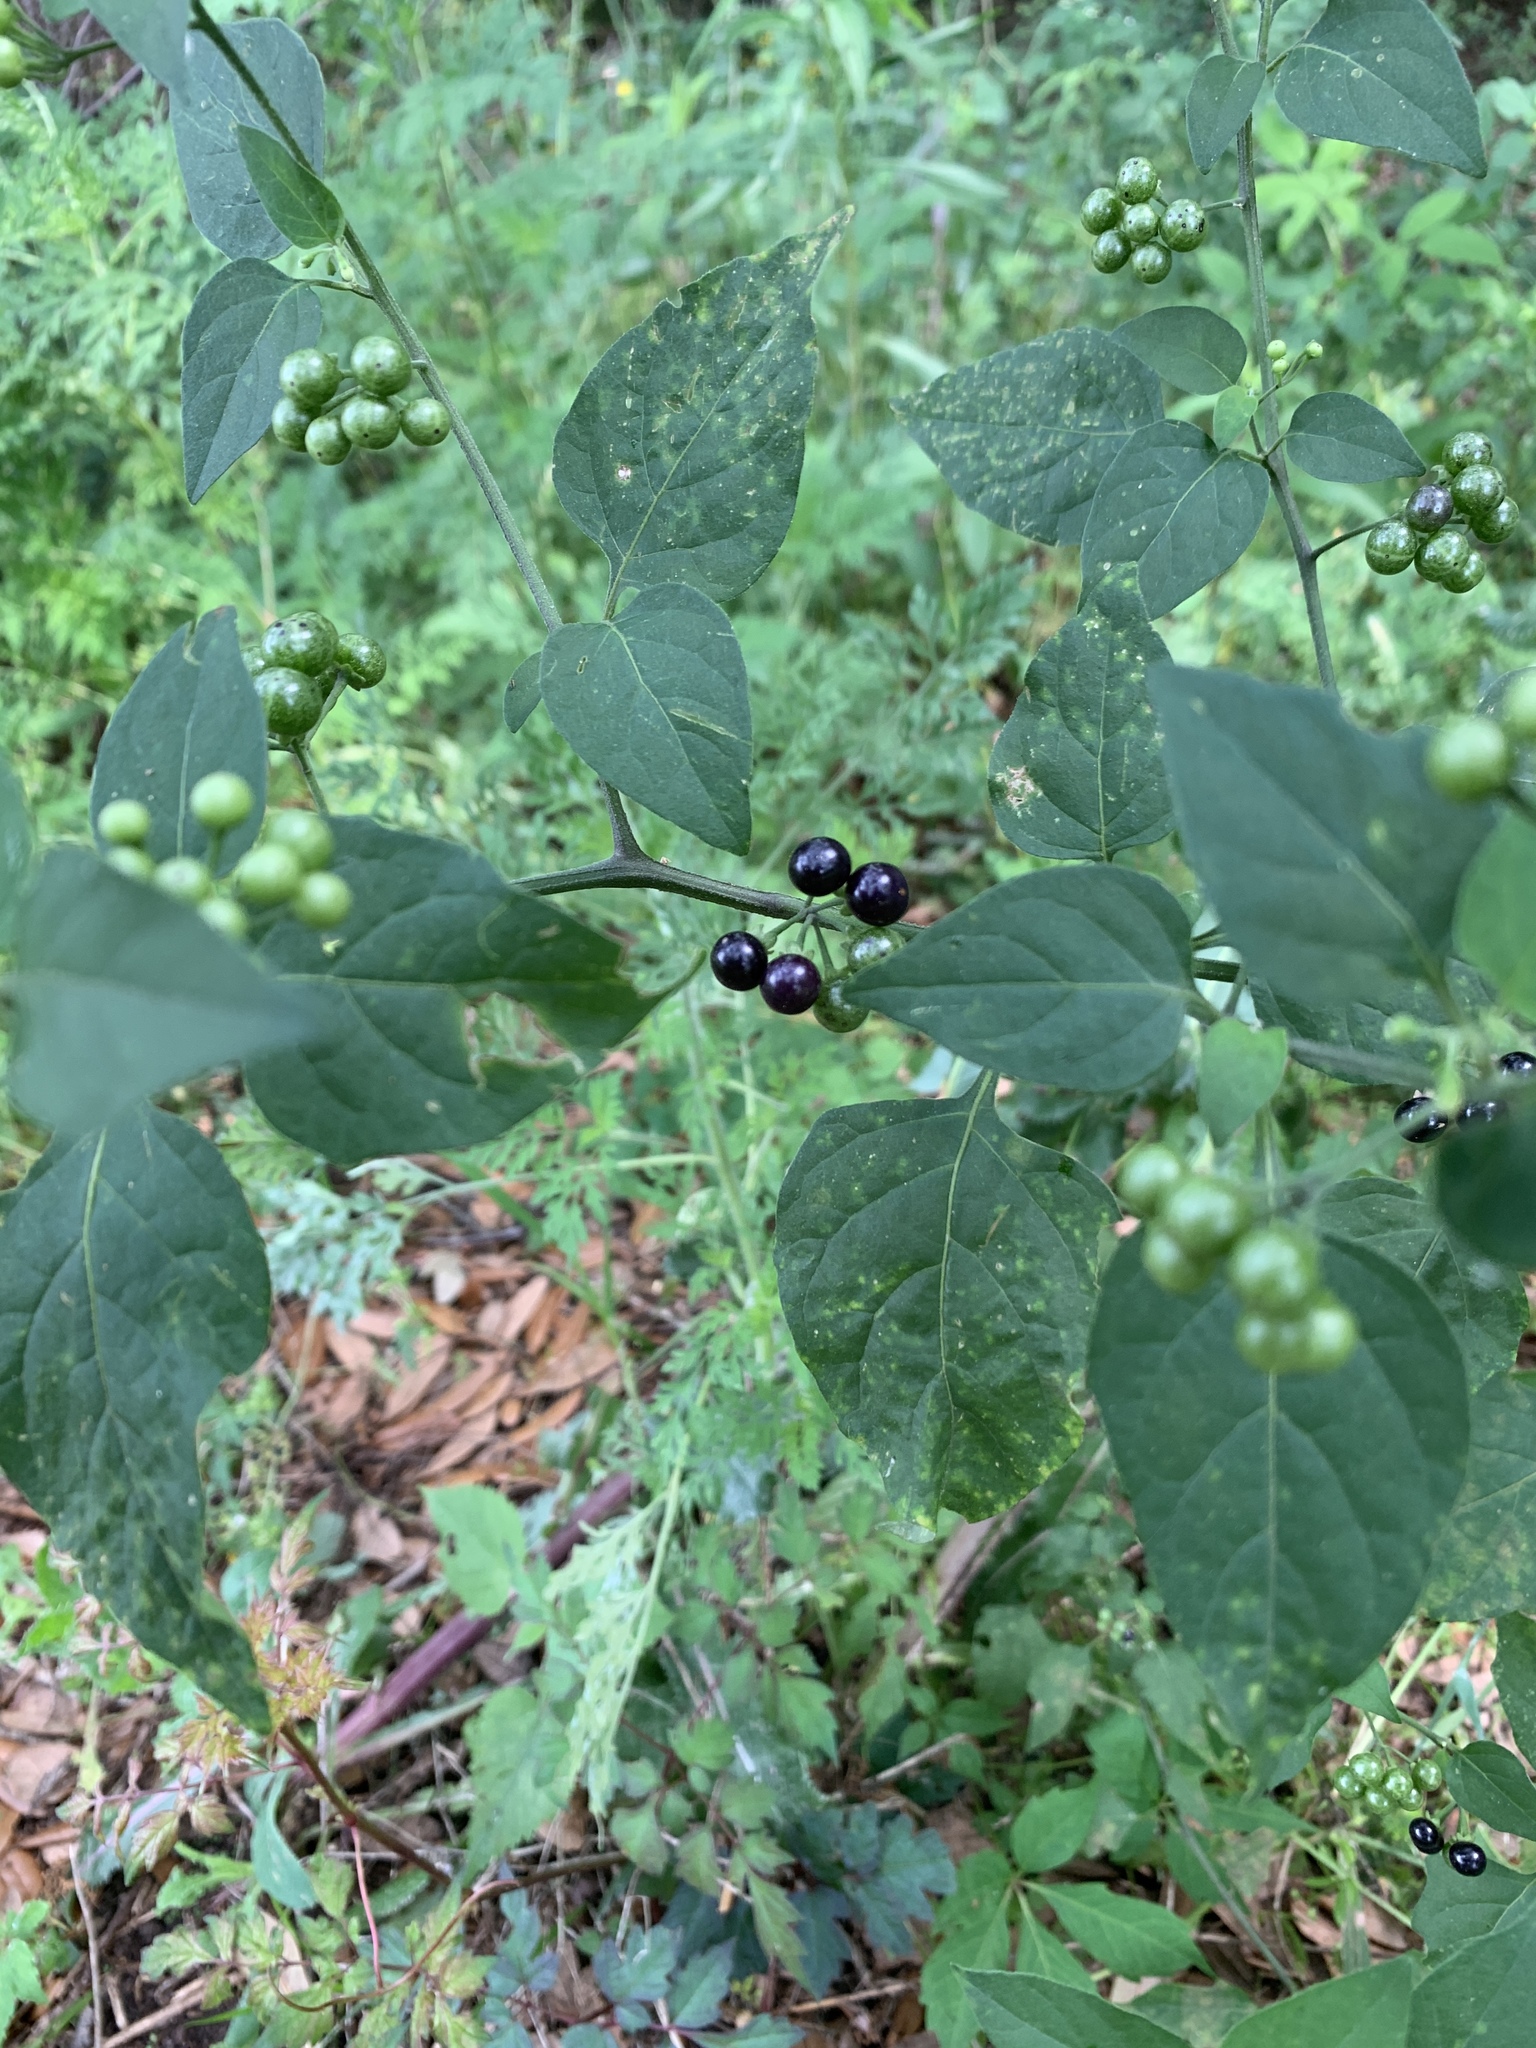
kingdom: Plantae
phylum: Tracheophyta
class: Magnoliopsida
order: Solanales
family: Solanaceae
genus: Solanum
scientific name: Solanum americanum
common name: American black nightshade
